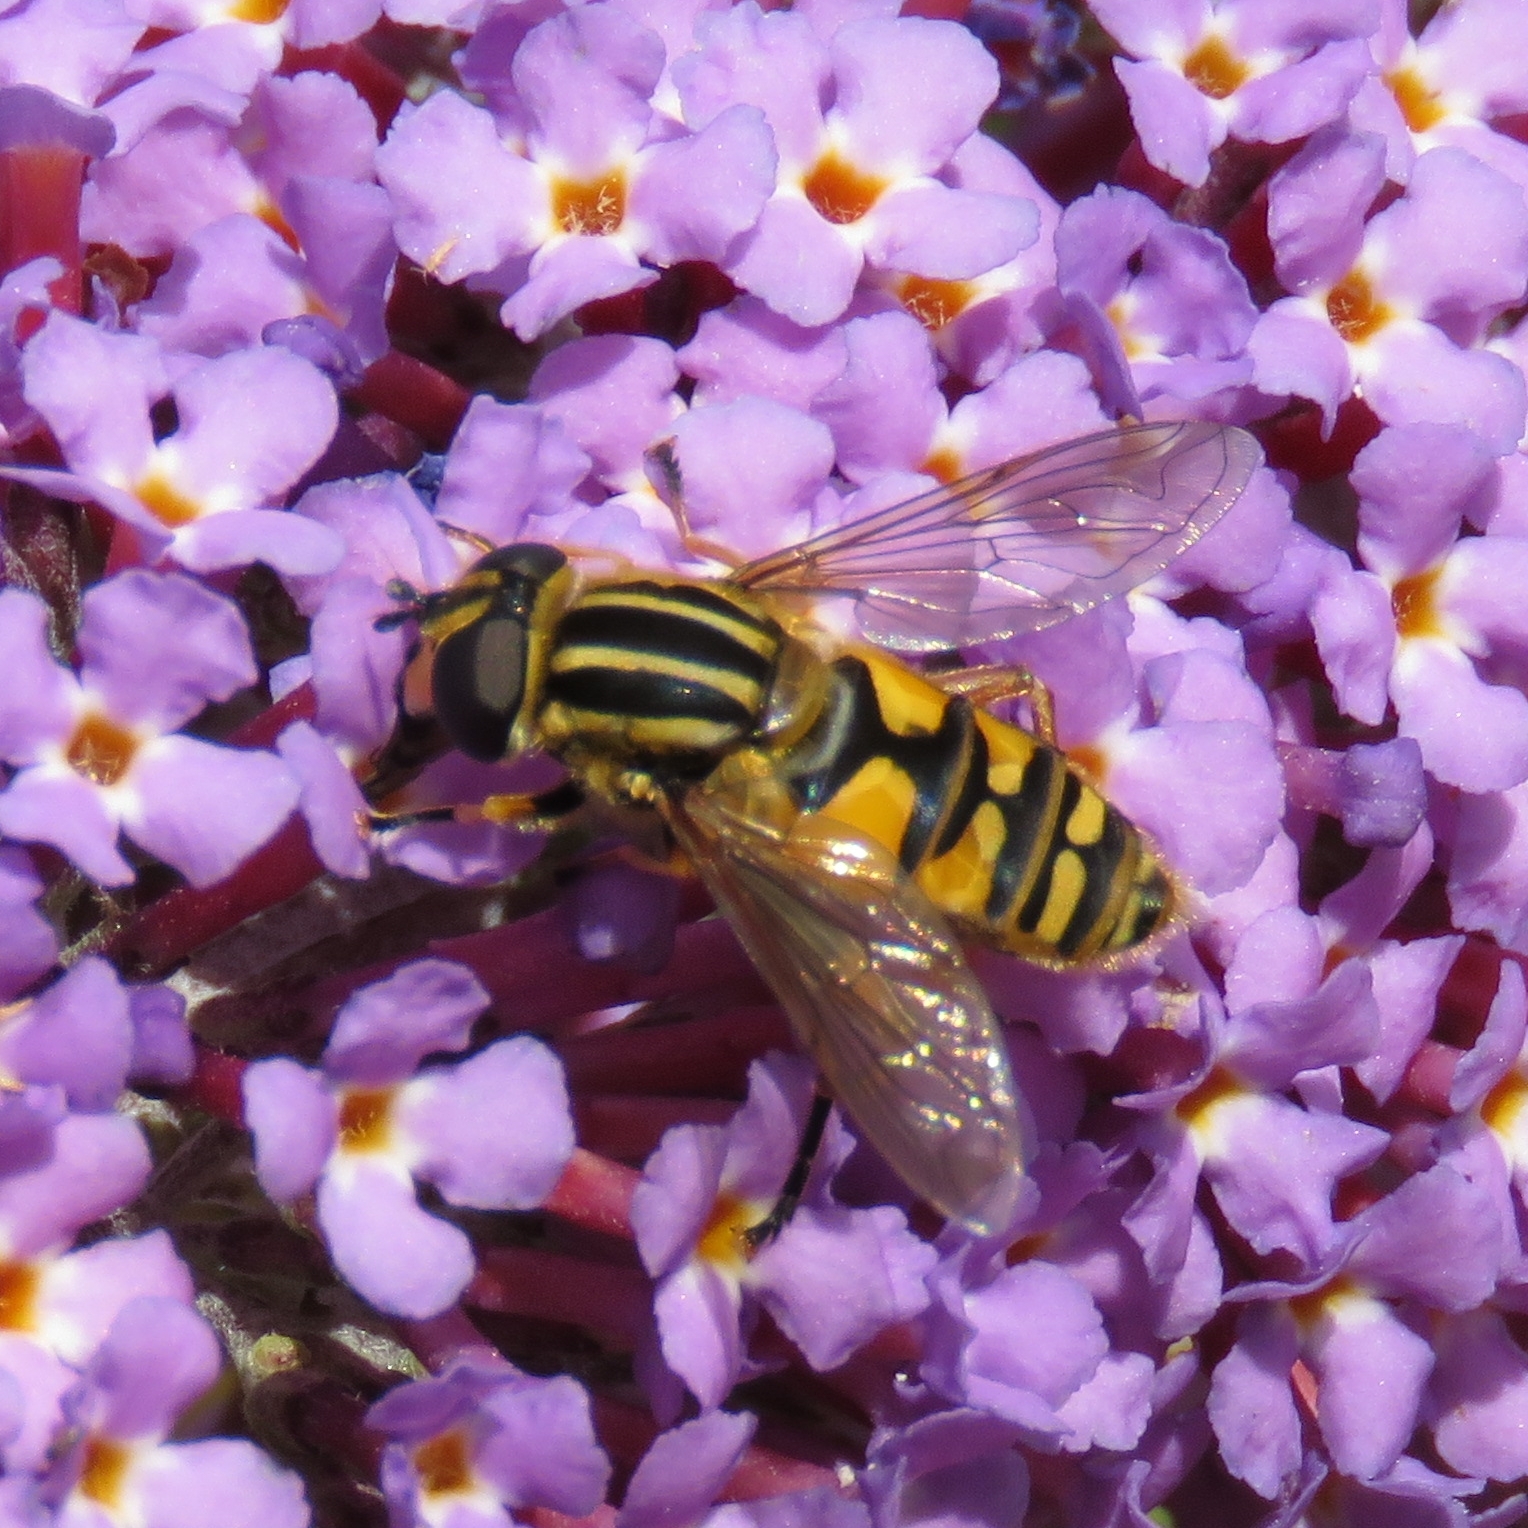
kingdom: Animalia
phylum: Arthropoda
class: Insecta
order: Diptera
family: Syrphidae
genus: Helophilus
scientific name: Helophilus pendulus
